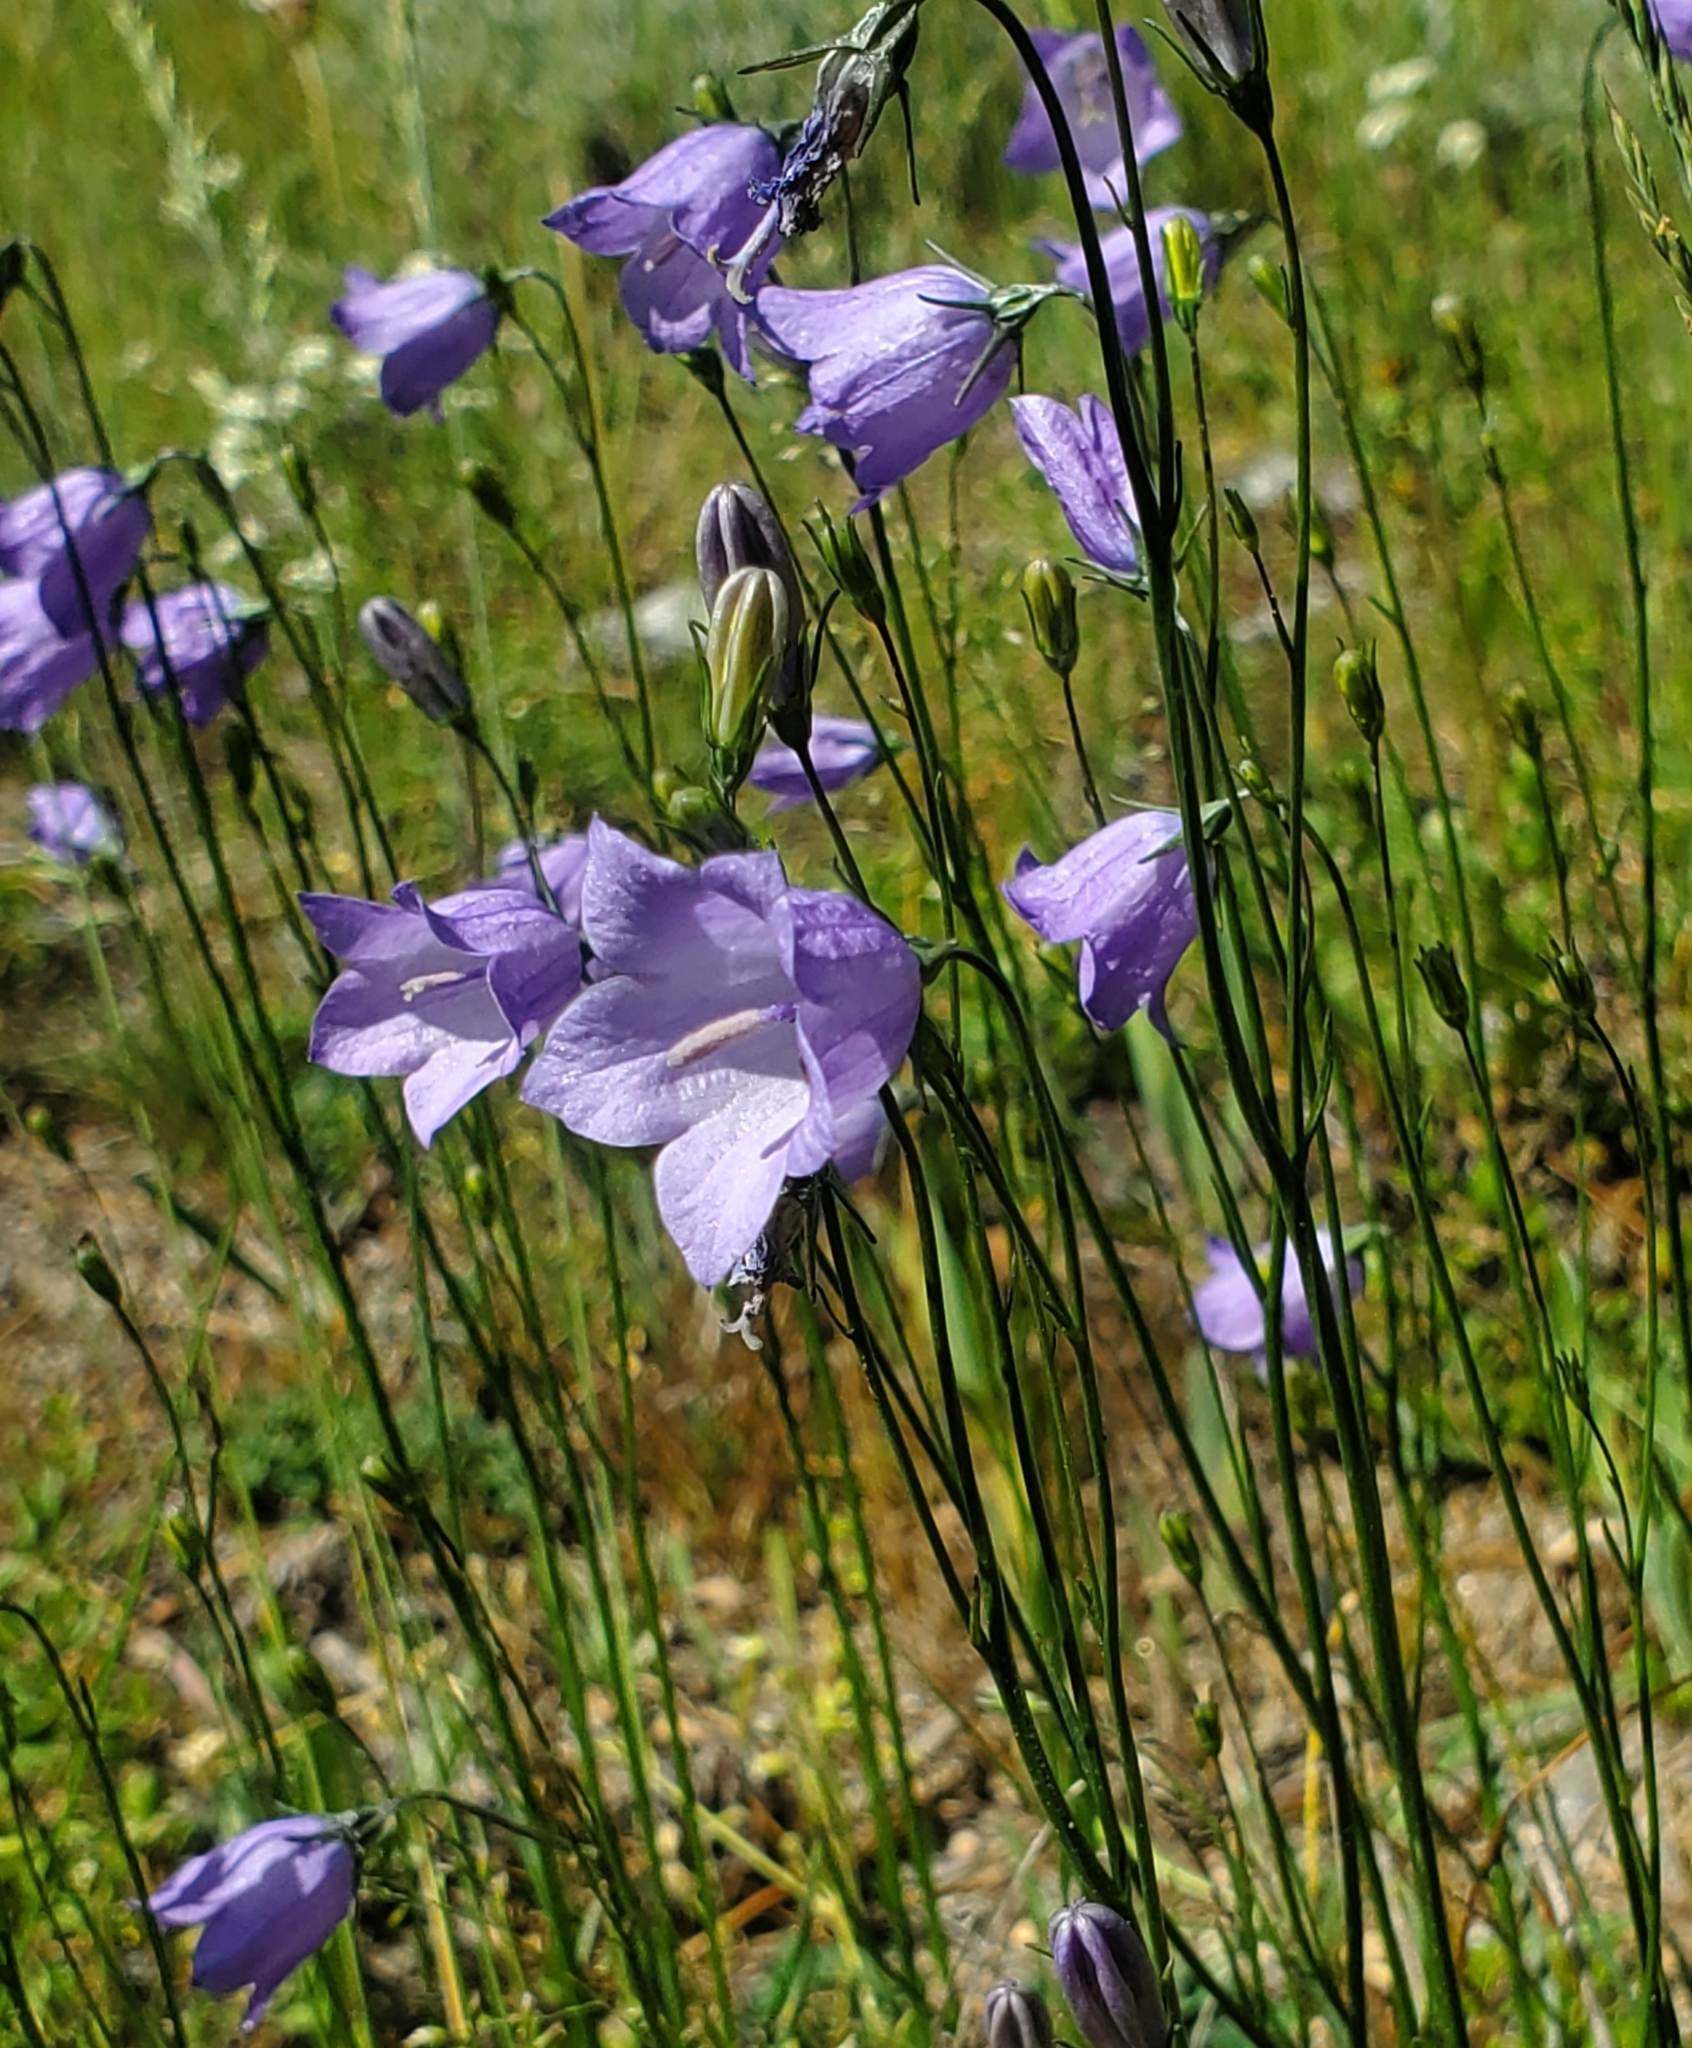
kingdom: Plantae
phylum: Tracheophyta
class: Magnoliopsida
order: Asterales
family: Campanulaceae
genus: Campanula
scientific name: Campanula
